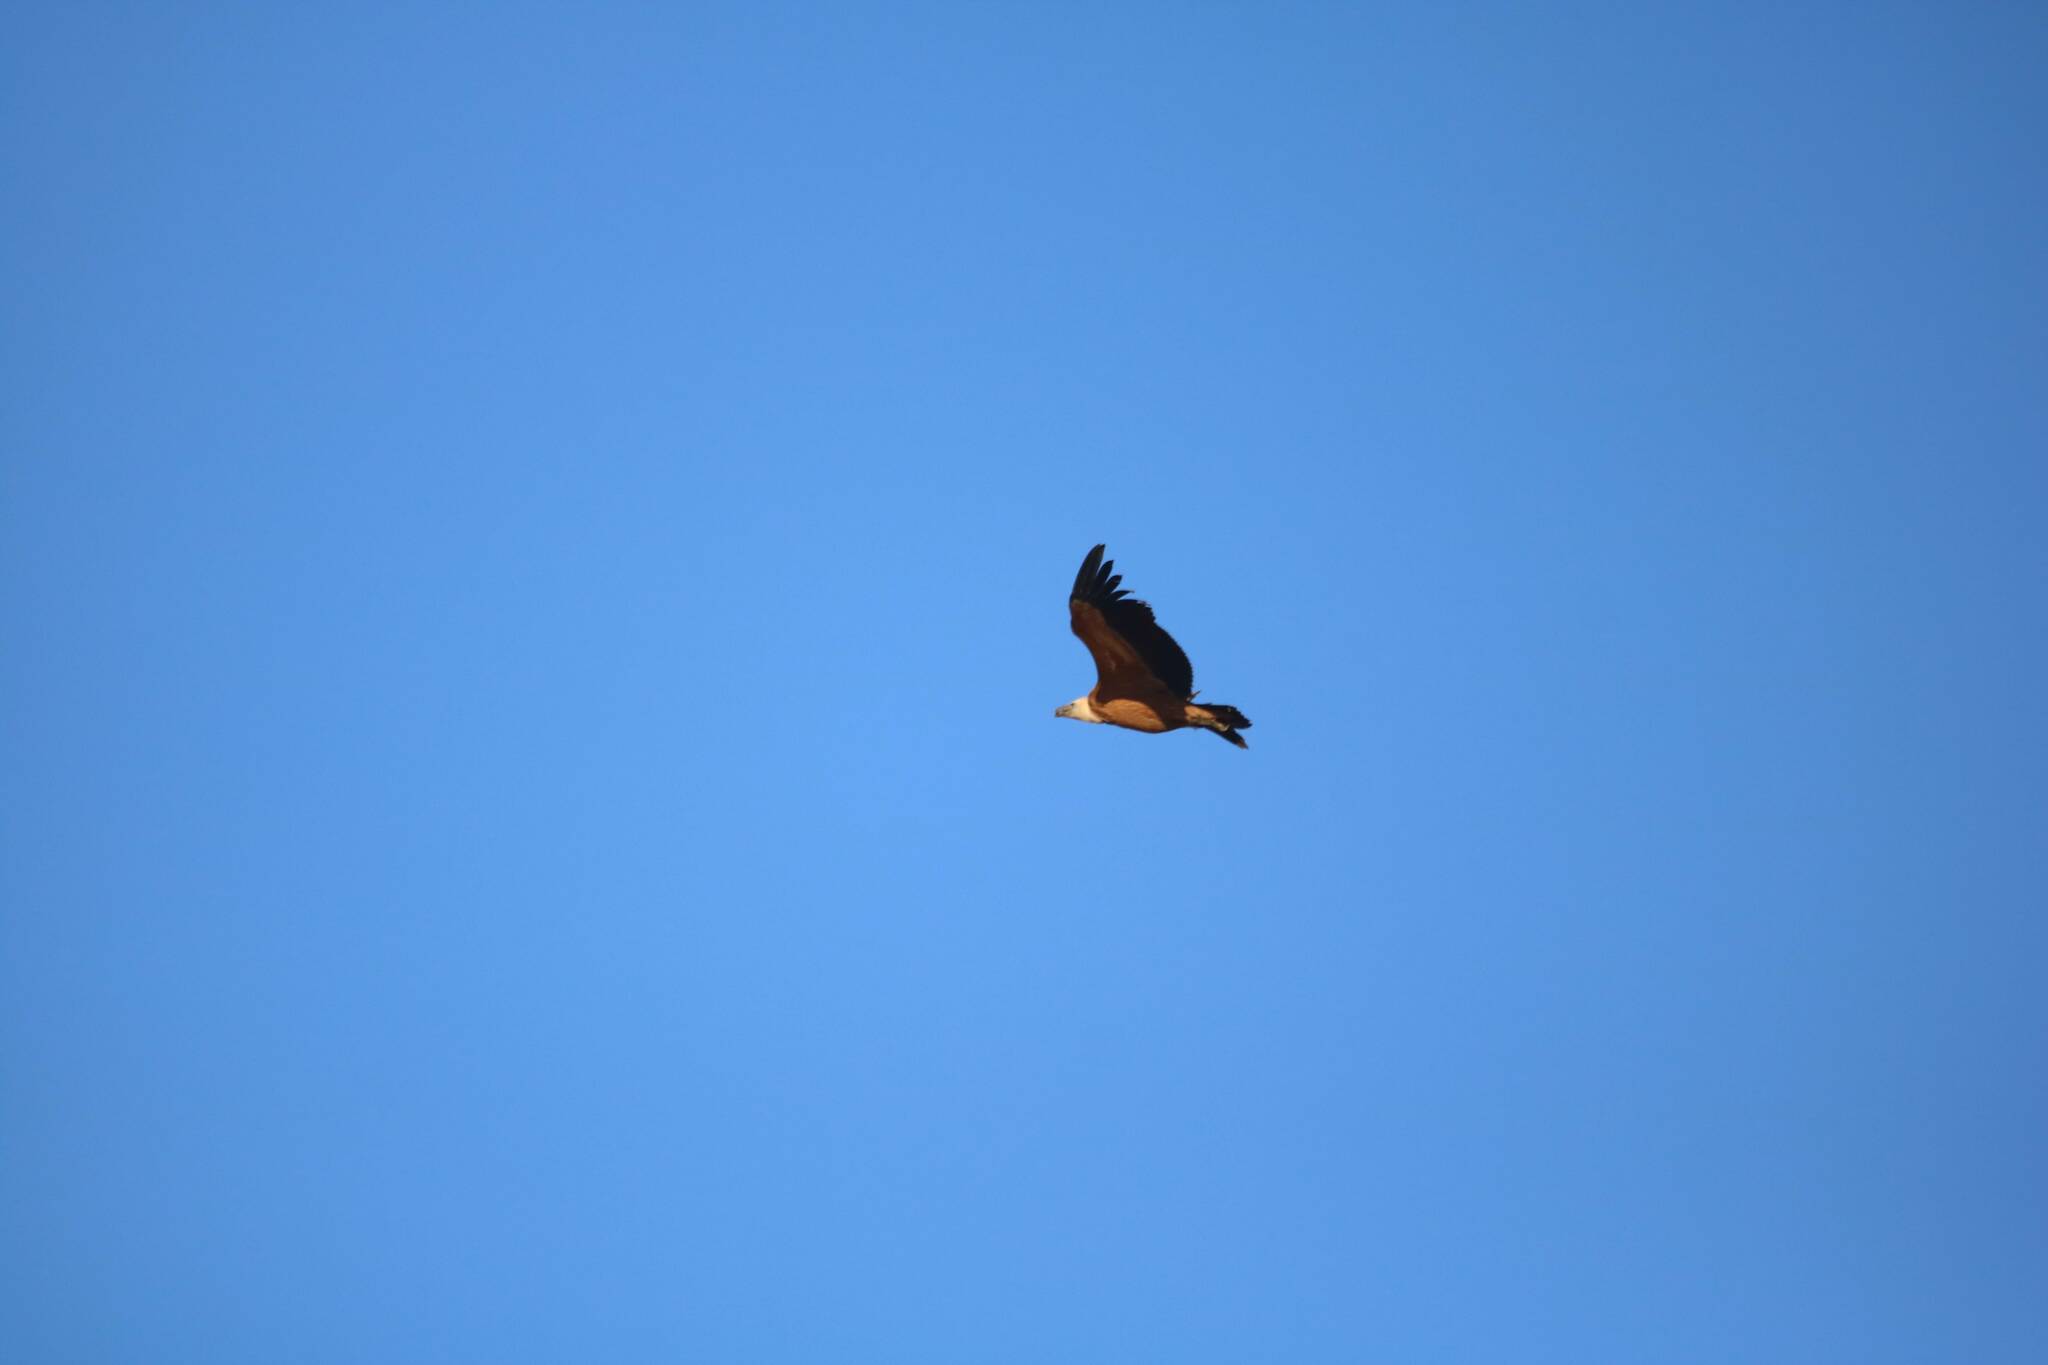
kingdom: Animalia
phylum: Chordata
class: Aves
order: Accipitriformes
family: Accipitridae
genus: Gyps
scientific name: Gyps fulvus
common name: Griffon vulture
